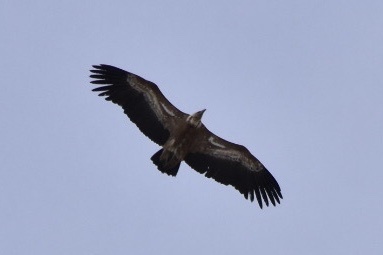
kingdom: Animalia
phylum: Chordata
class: Aves
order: Accipitriformes
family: Accipitridae
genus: Gyps
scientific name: Gyps fulvus
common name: Griffon vulture
